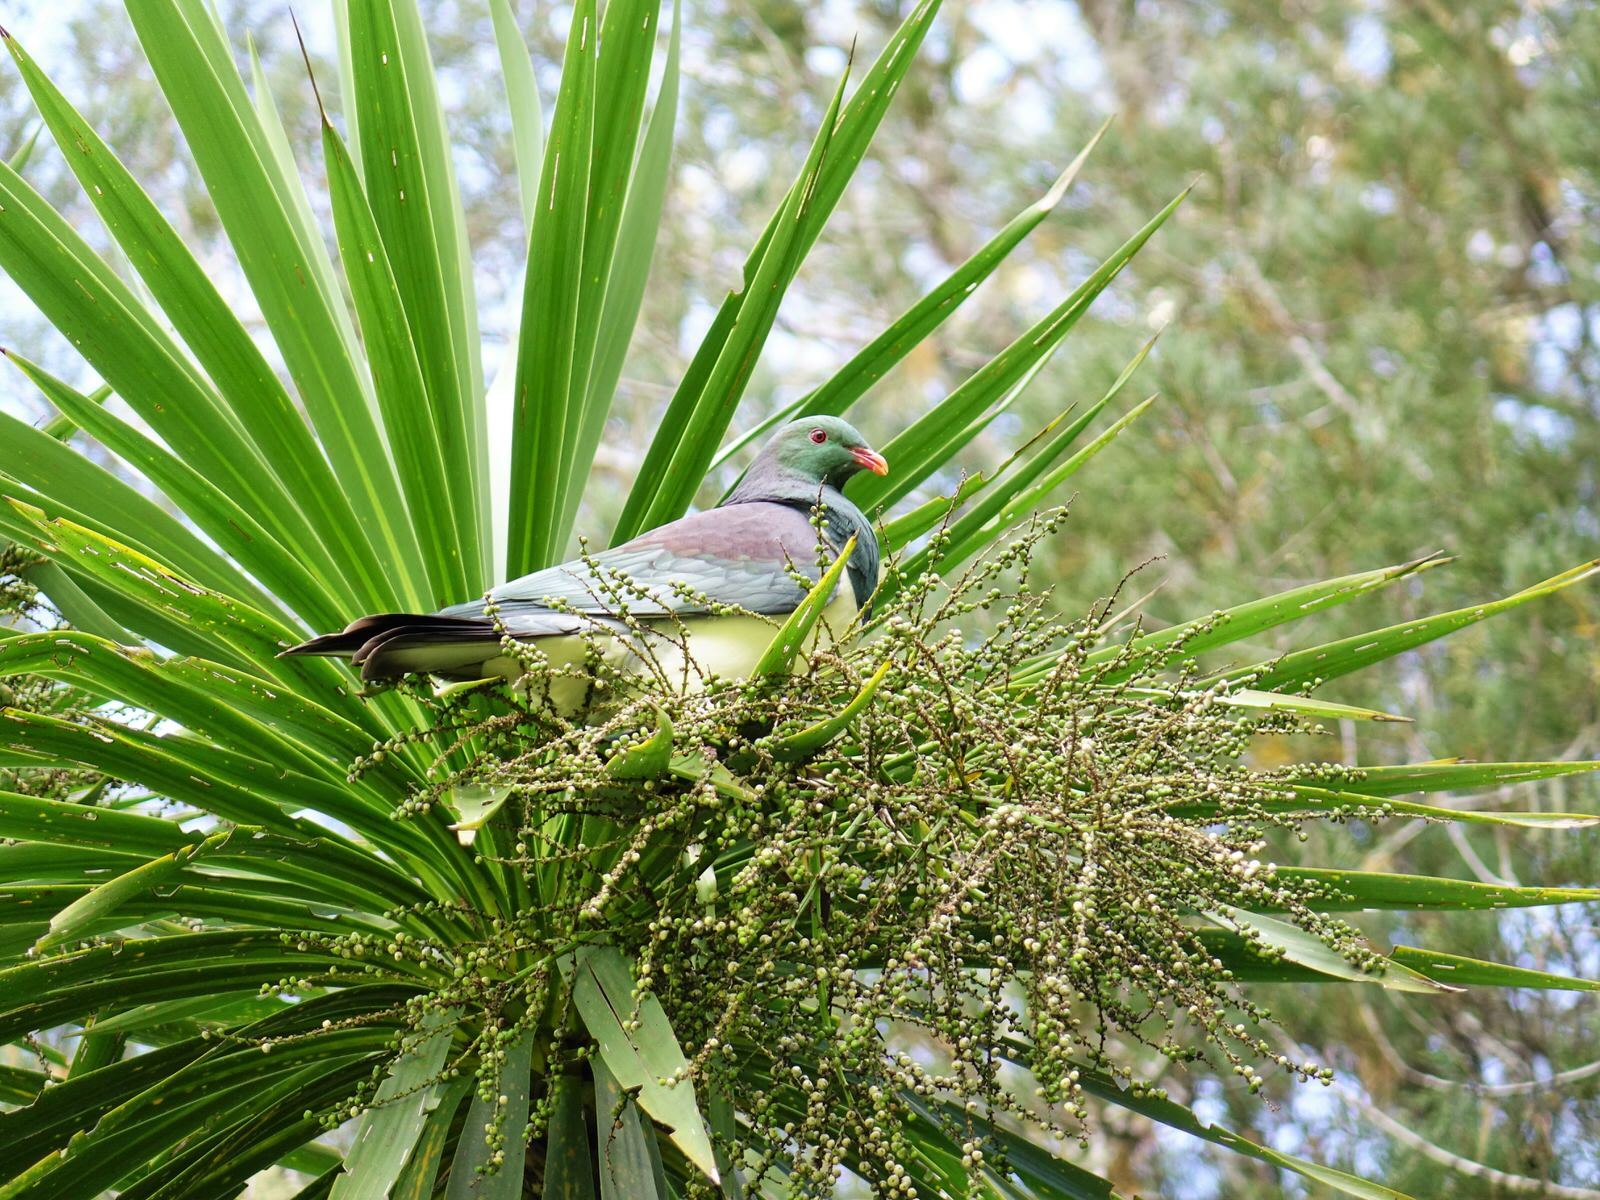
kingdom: Animalia
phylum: Chordata
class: Aves
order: Columbiformes
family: Columbidae
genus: Hemiphaga
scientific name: Hemiphaga novaeseelandiae
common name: New zealand pigeon
